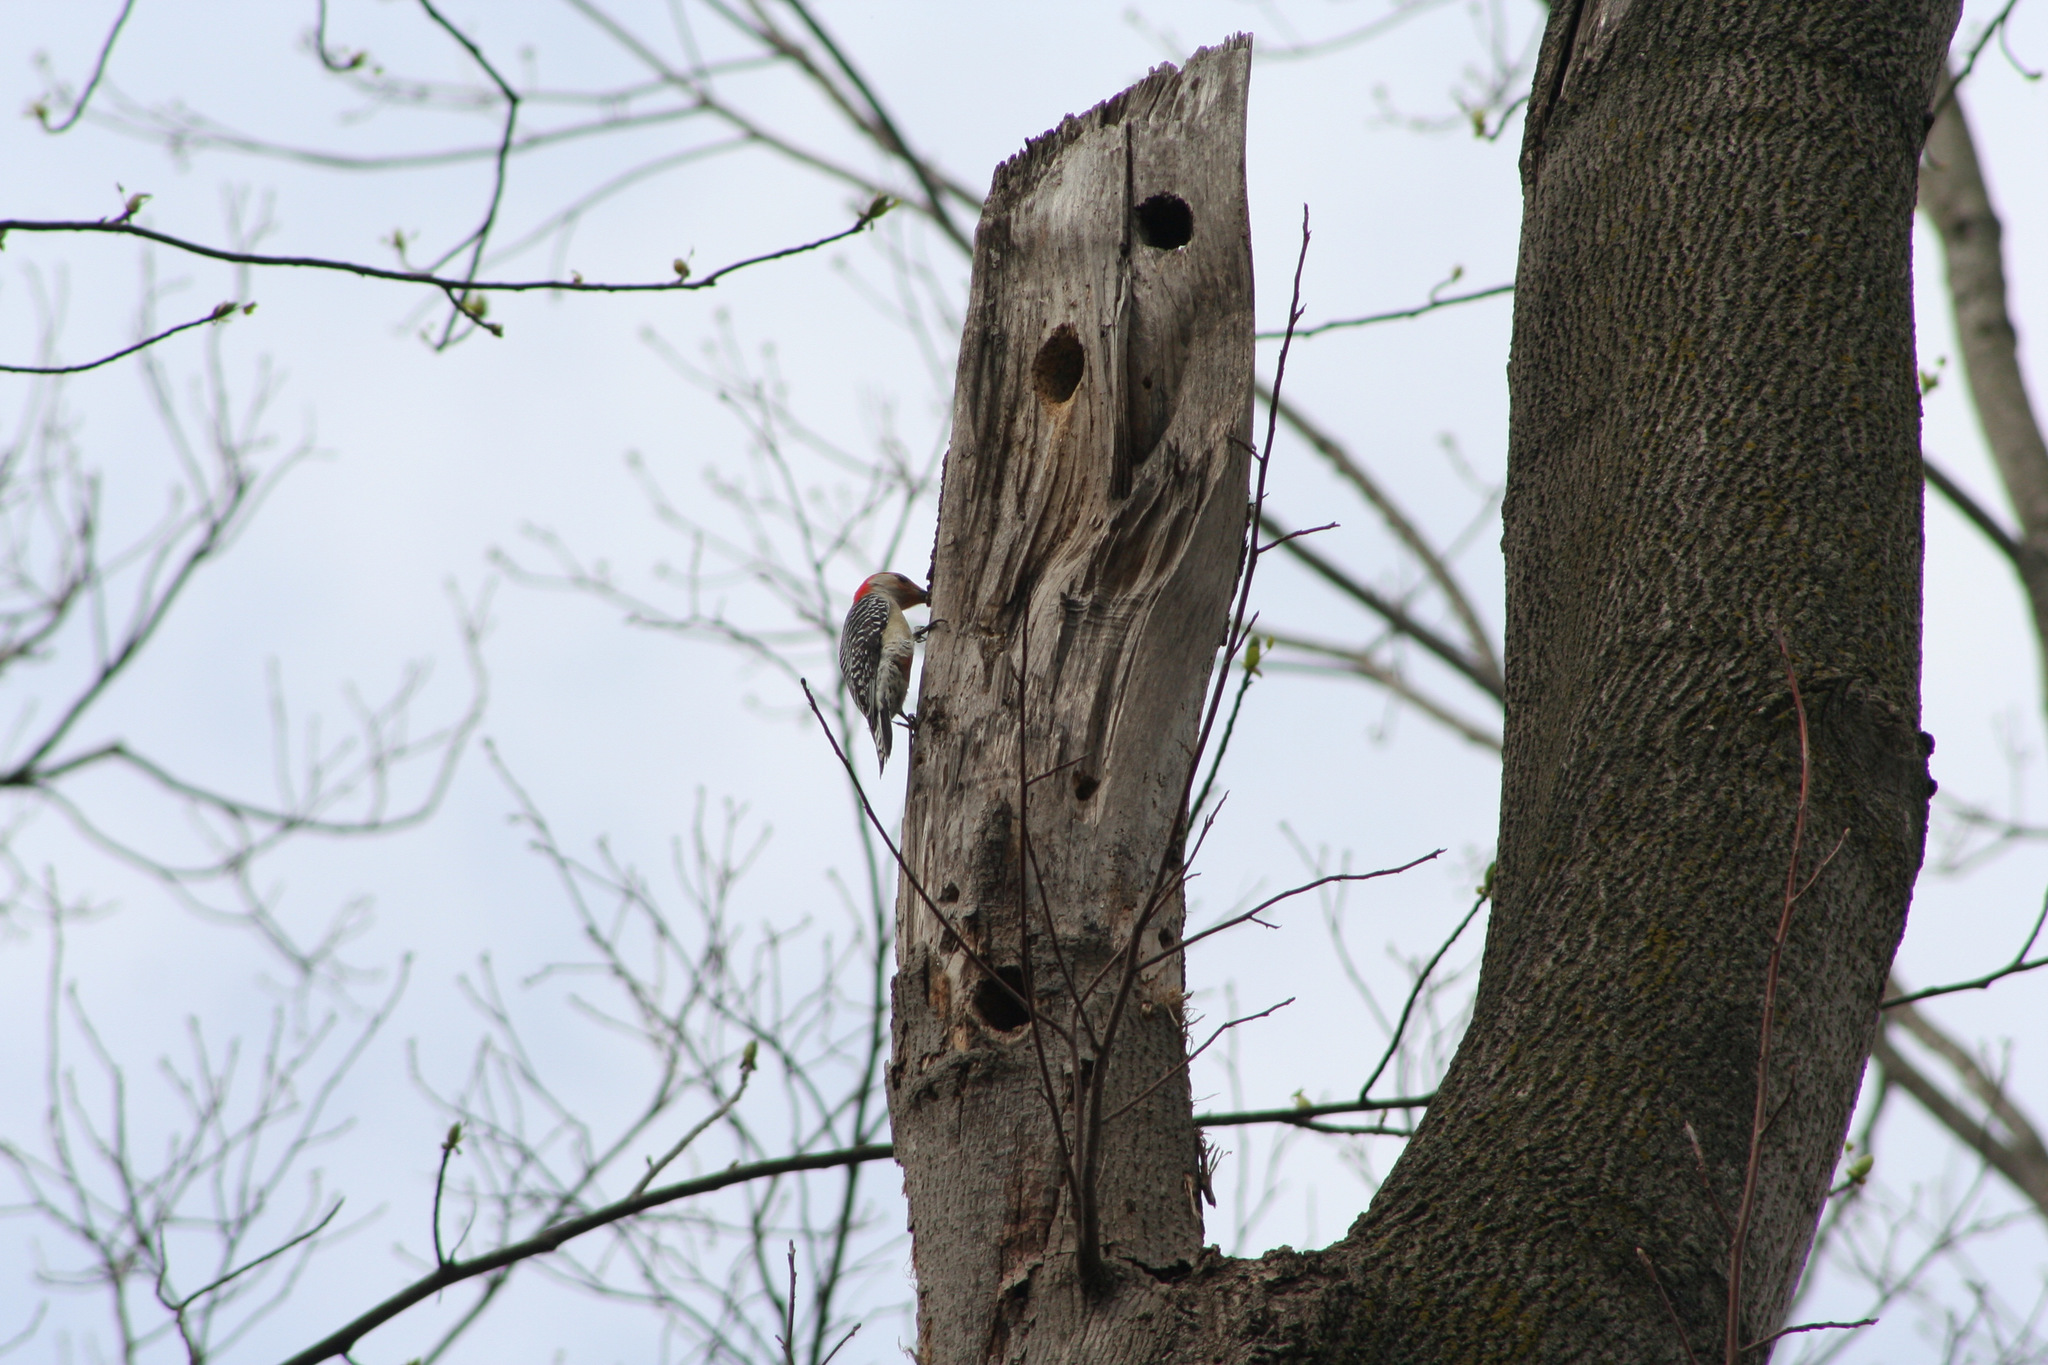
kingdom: Animalia
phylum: Chordata
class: Aves
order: Piciformes
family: Picidae
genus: Melanerpes
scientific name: Melanerpes carolinus
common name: Red-bellied woodpecker
